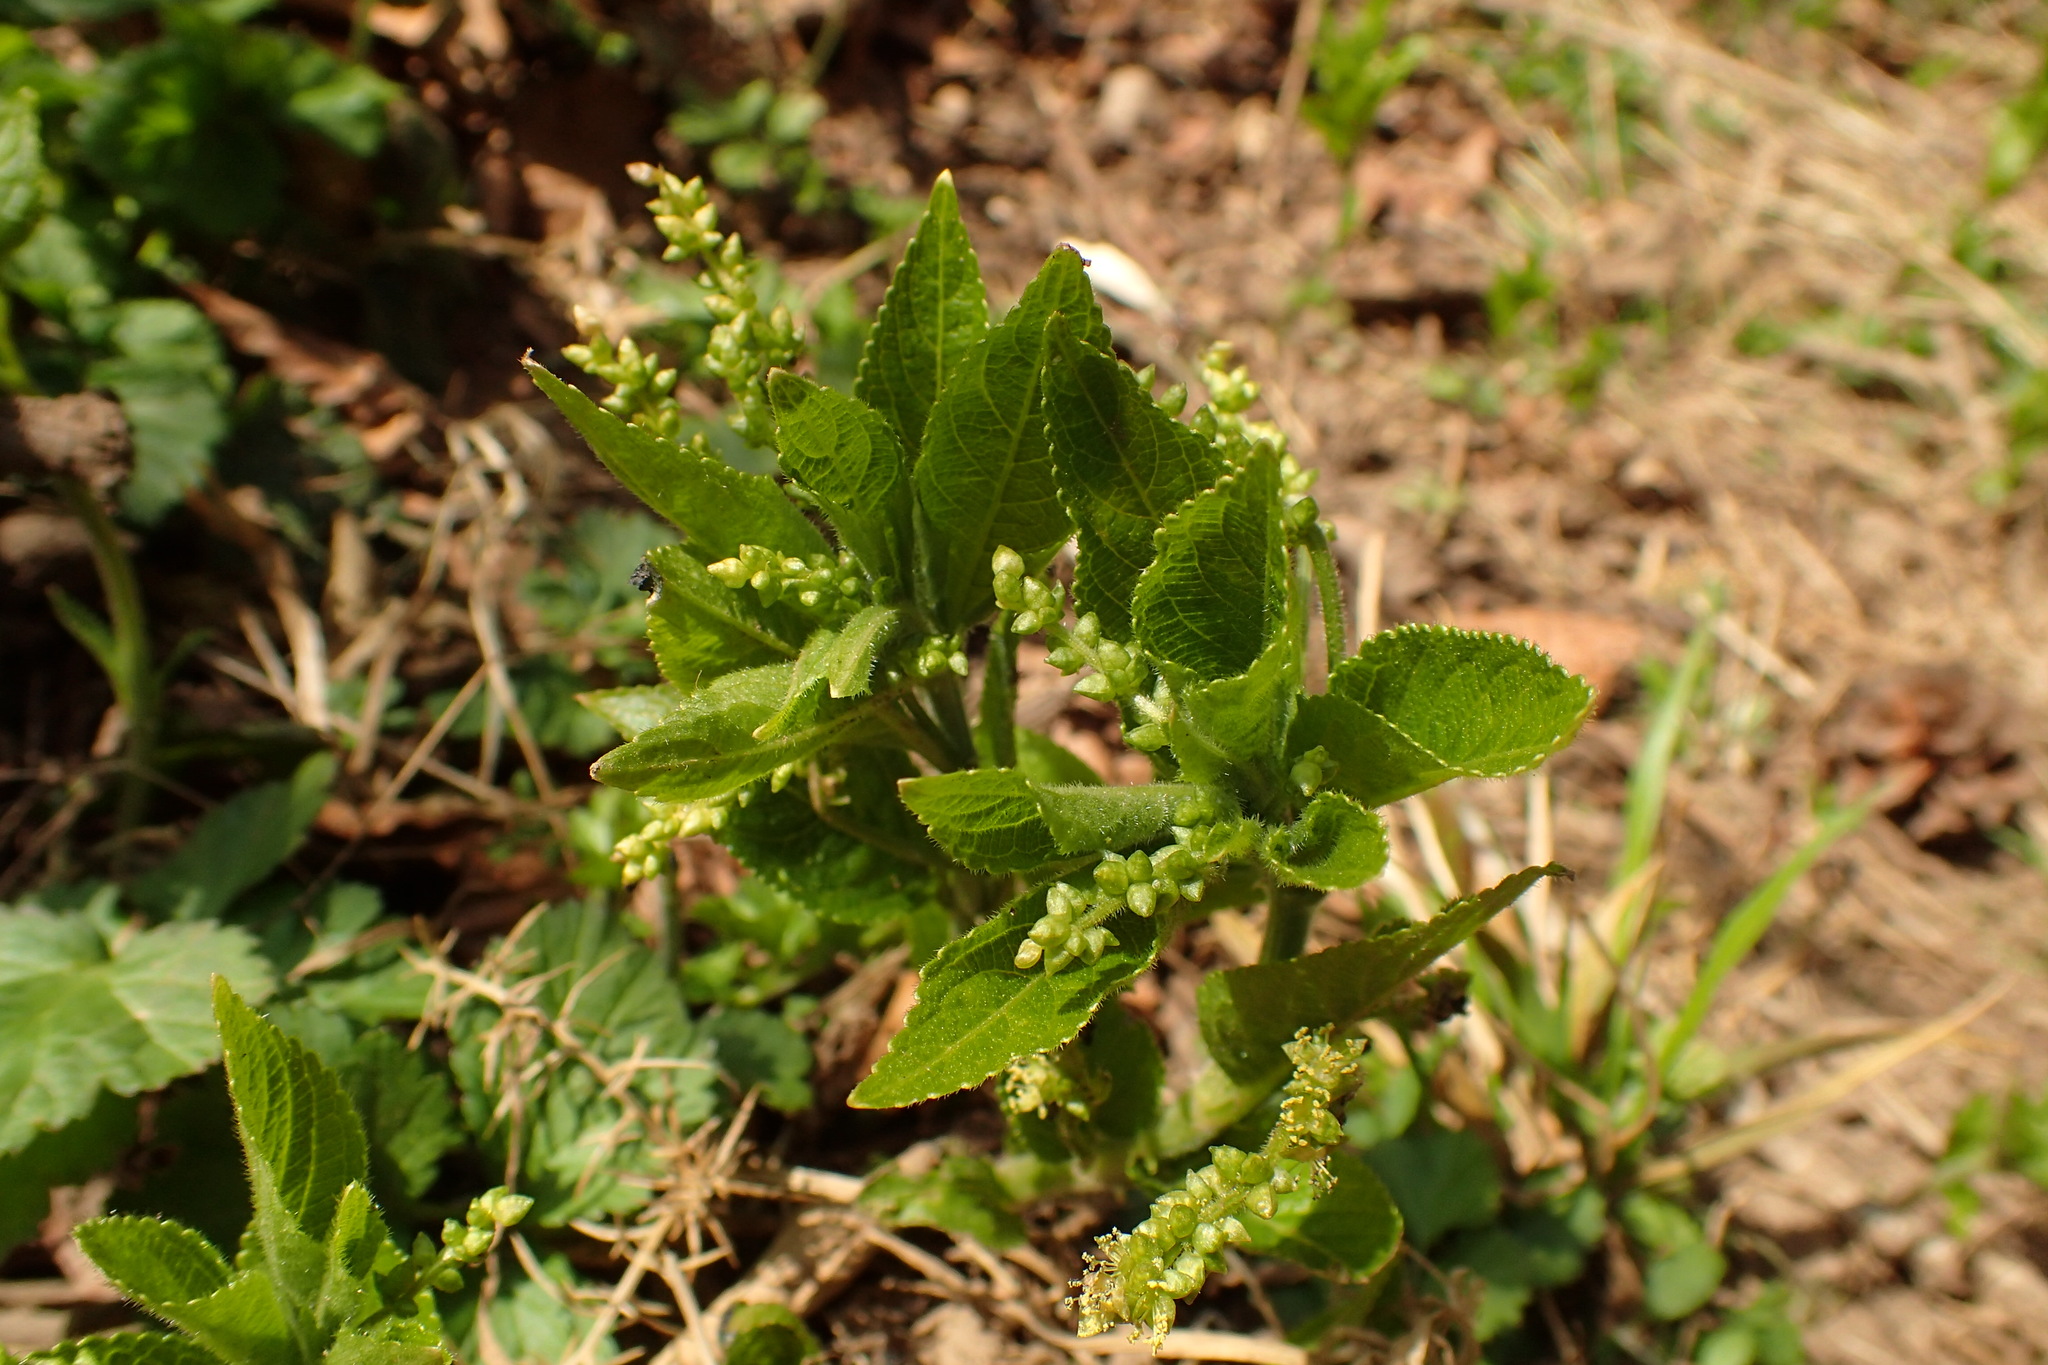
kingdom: Plantae
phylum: Tracheophyta
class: Magnoliopsida
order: Malpighiales
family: Euphorbiaceae
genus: Mercurialis
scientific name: Mercurialis perennis
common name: Dog mercury
